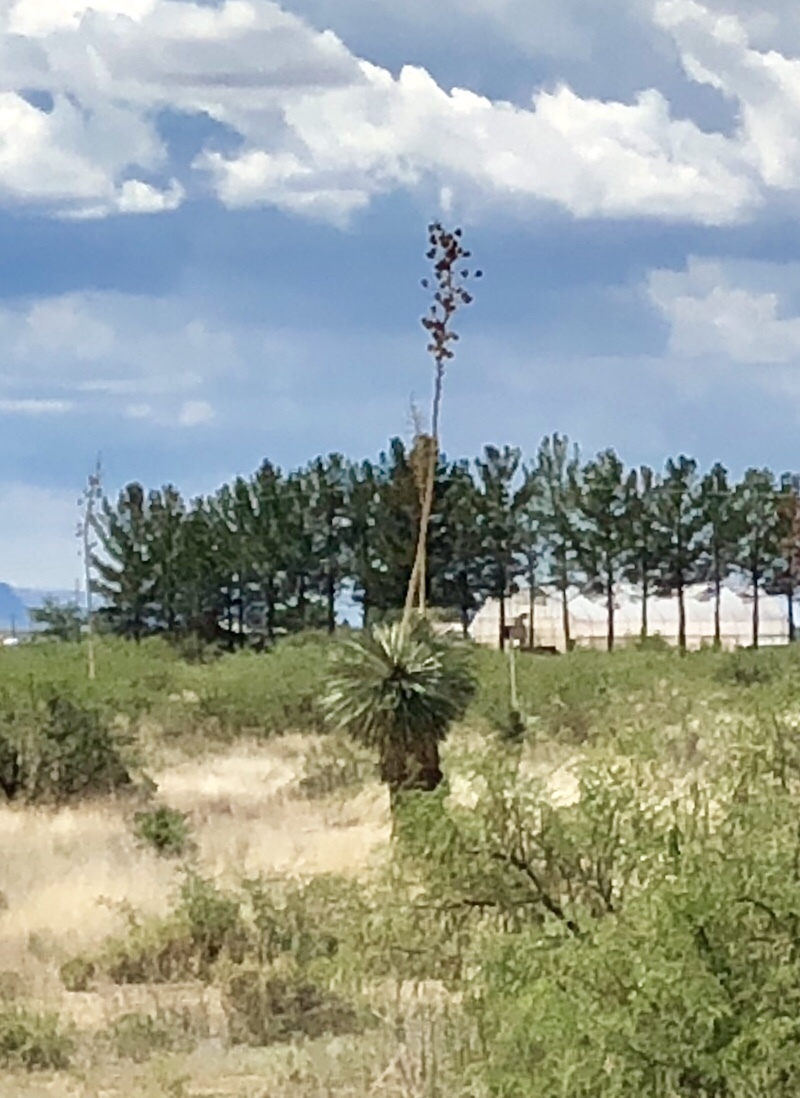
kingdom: Plantae
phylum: Tracheophyta
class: Liliopsida
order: Asparagales
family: Asparagaceae
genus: Yucca
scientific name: Yucca elata
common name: Palmella
